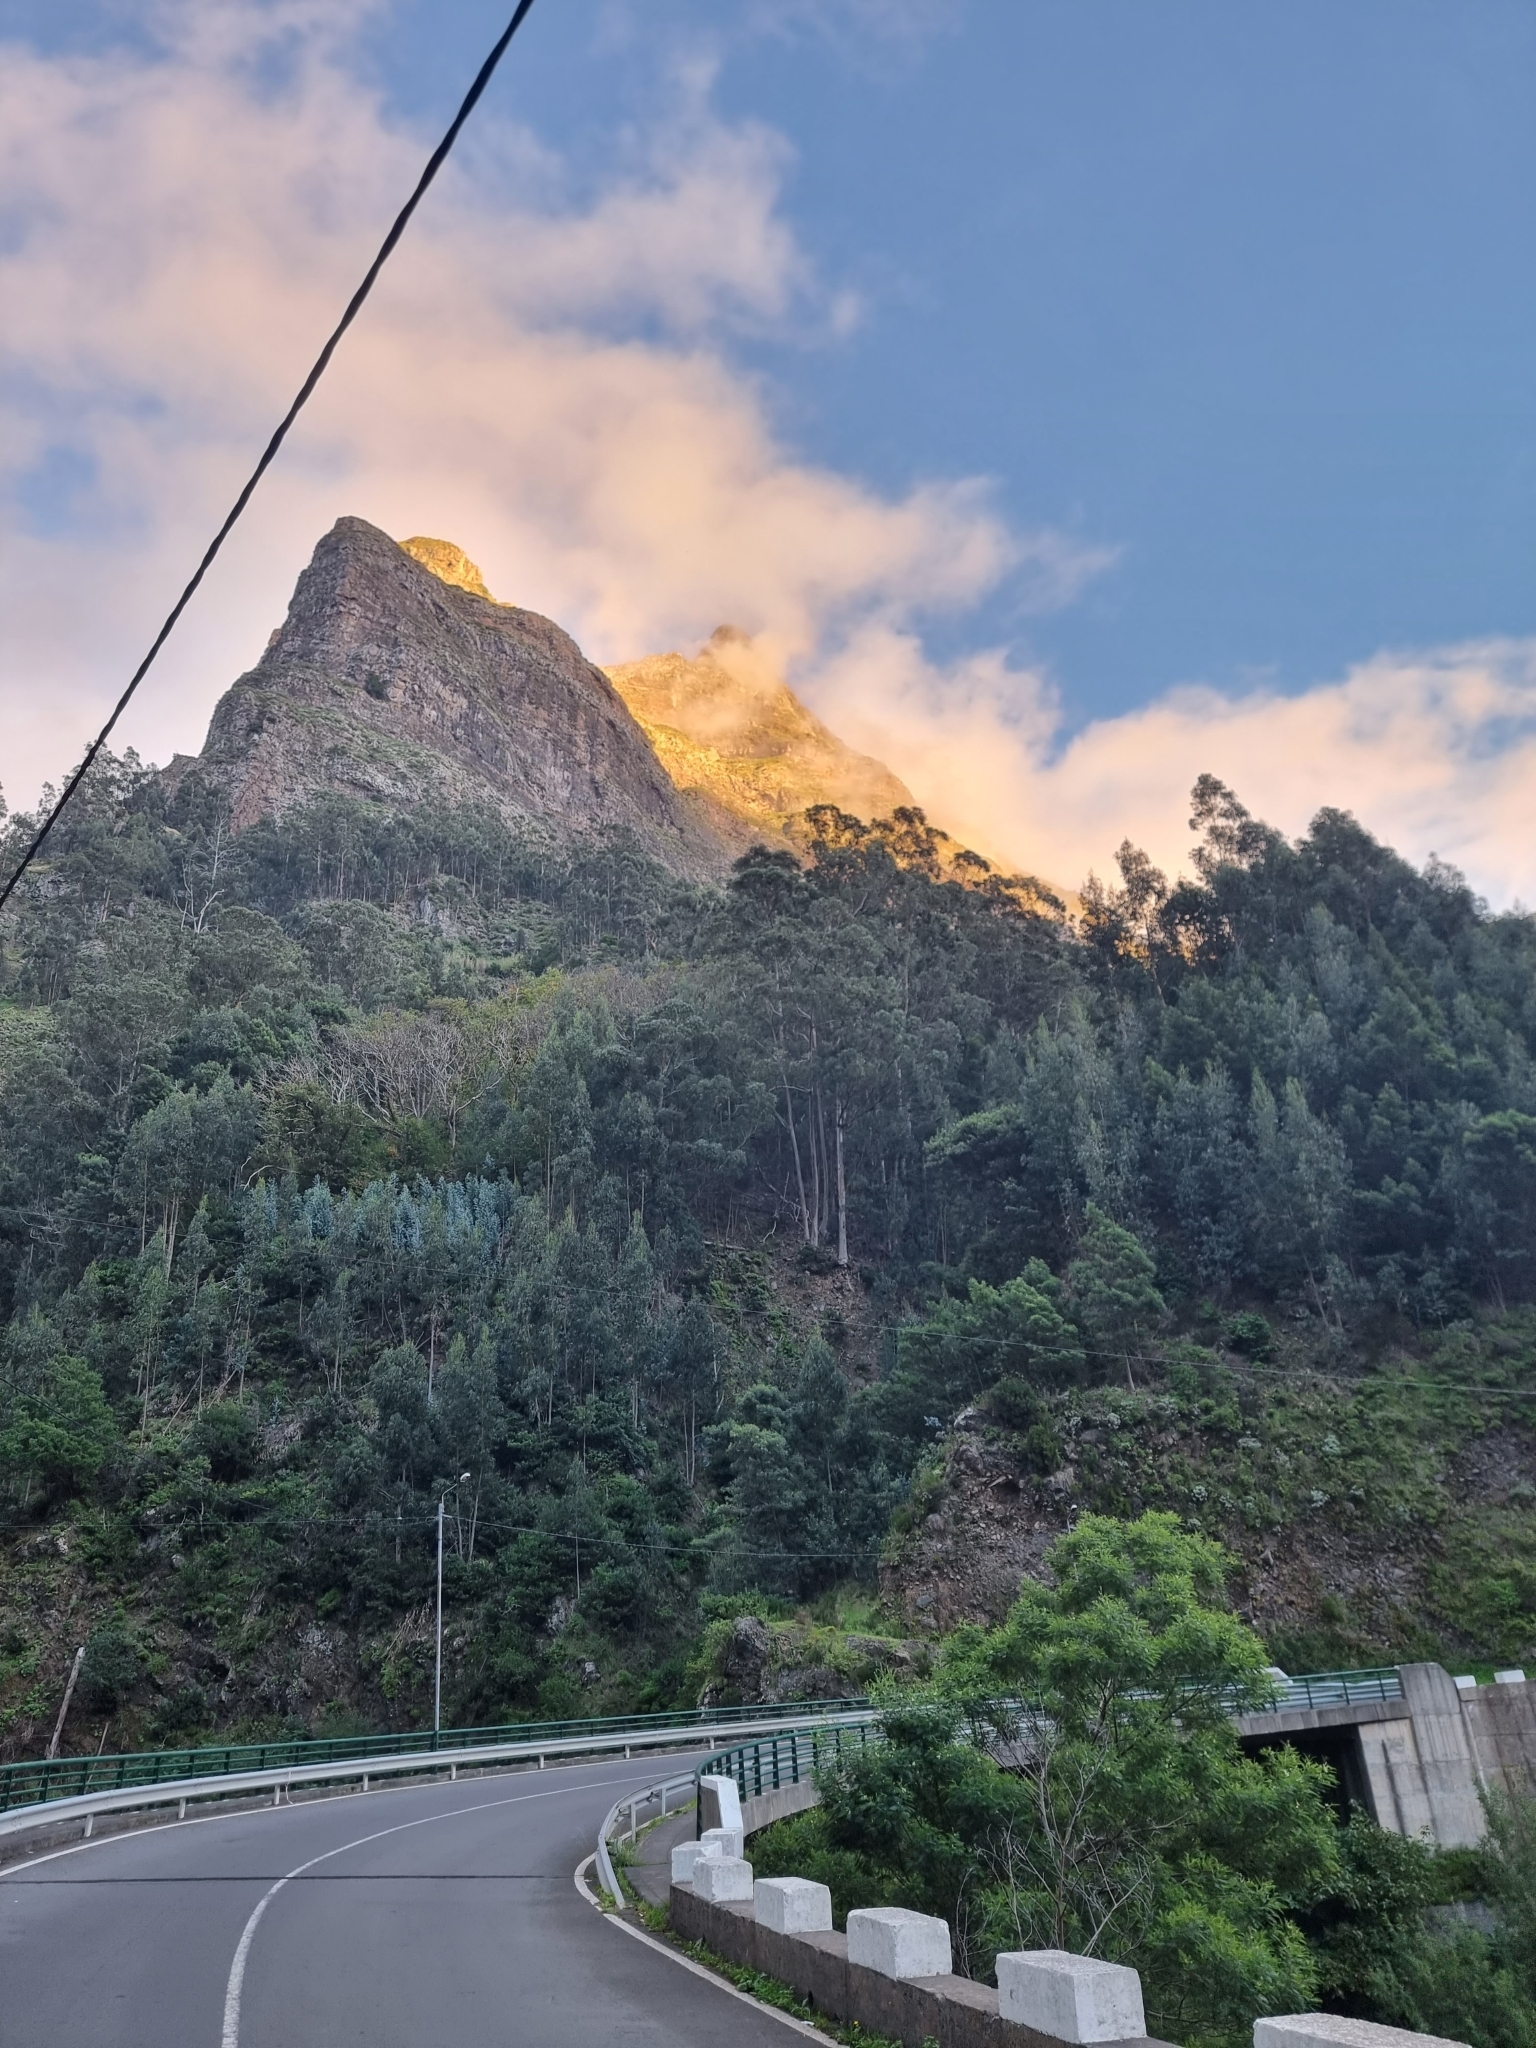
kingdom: Plantae
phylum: Tracheophyta
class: Magnoliopsida
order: Myrtales
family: Myrtaceae
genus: Eucalyptus
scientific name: Eucalyptus globulus
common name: Southern blue-gum
